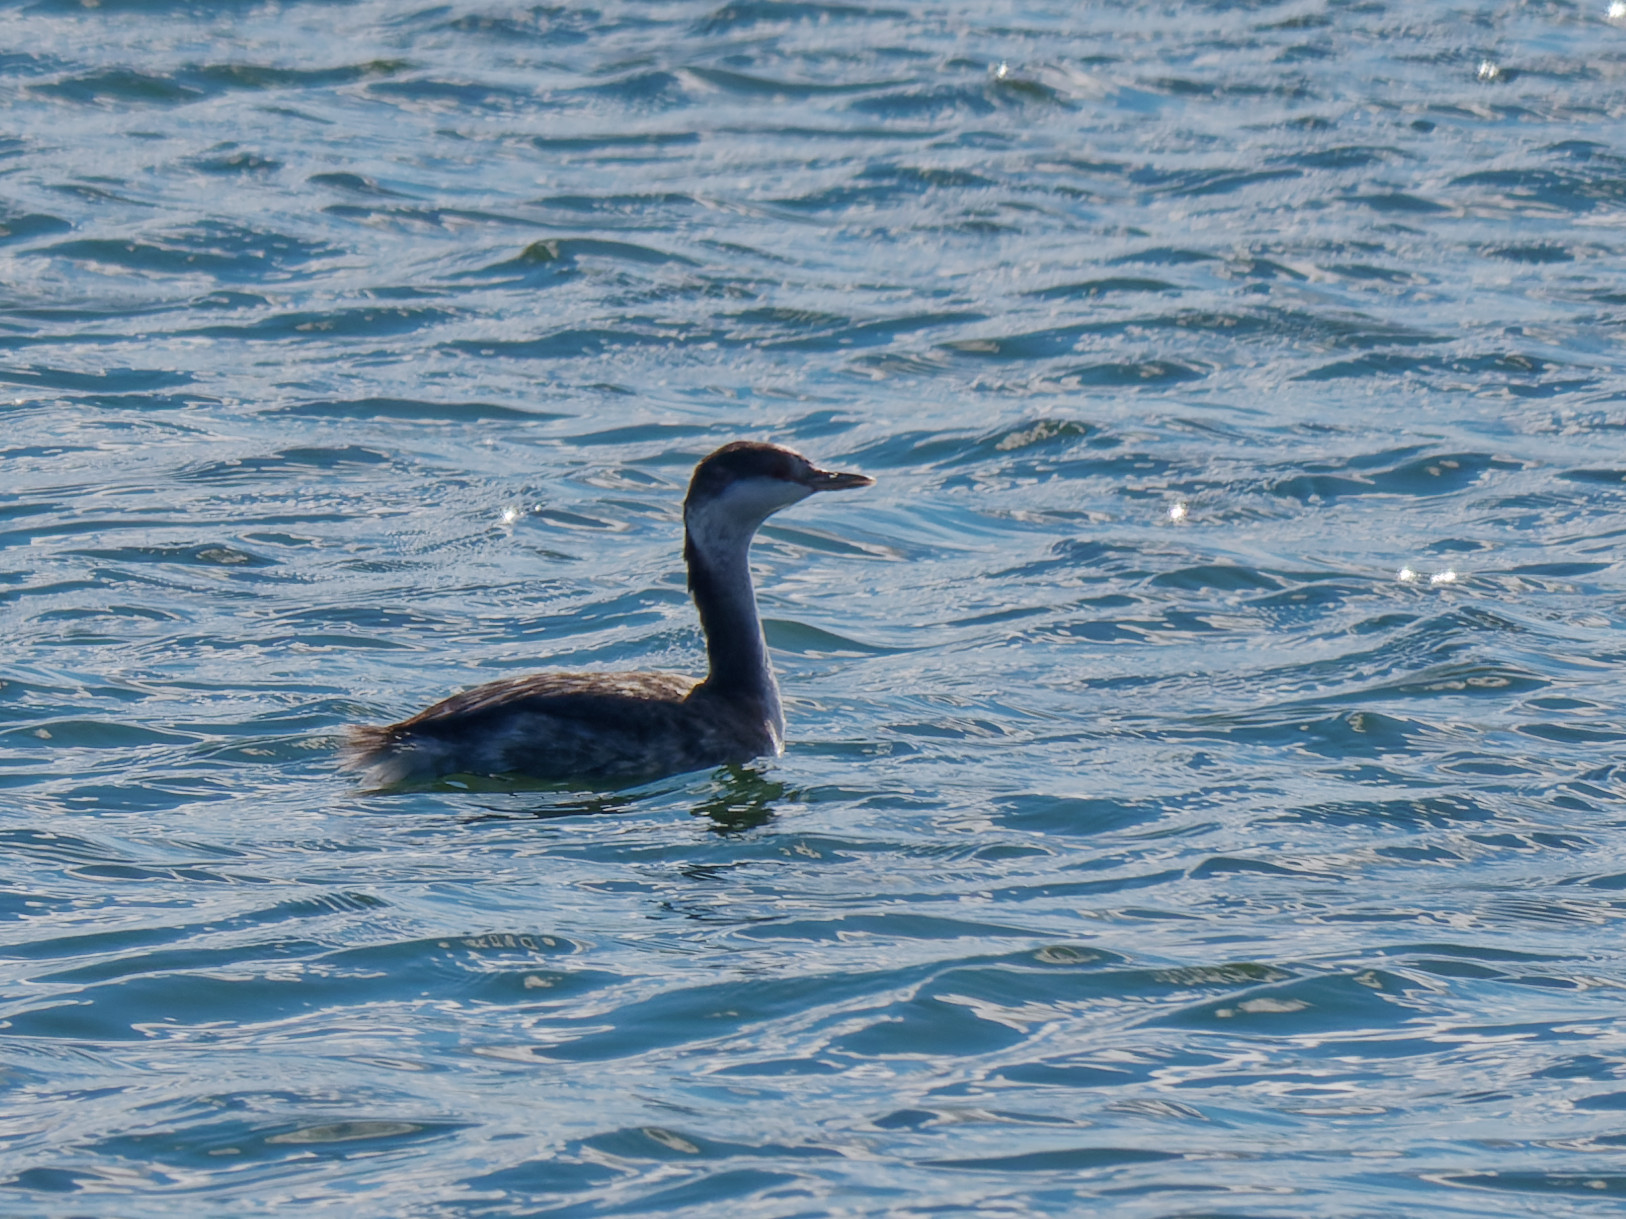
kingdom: Animalia
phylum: Chordata
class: Aves
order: Podicipediformes
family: Podicipedidae
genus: Podiceps
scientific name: Podiceps auritus
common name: Horned grebe
